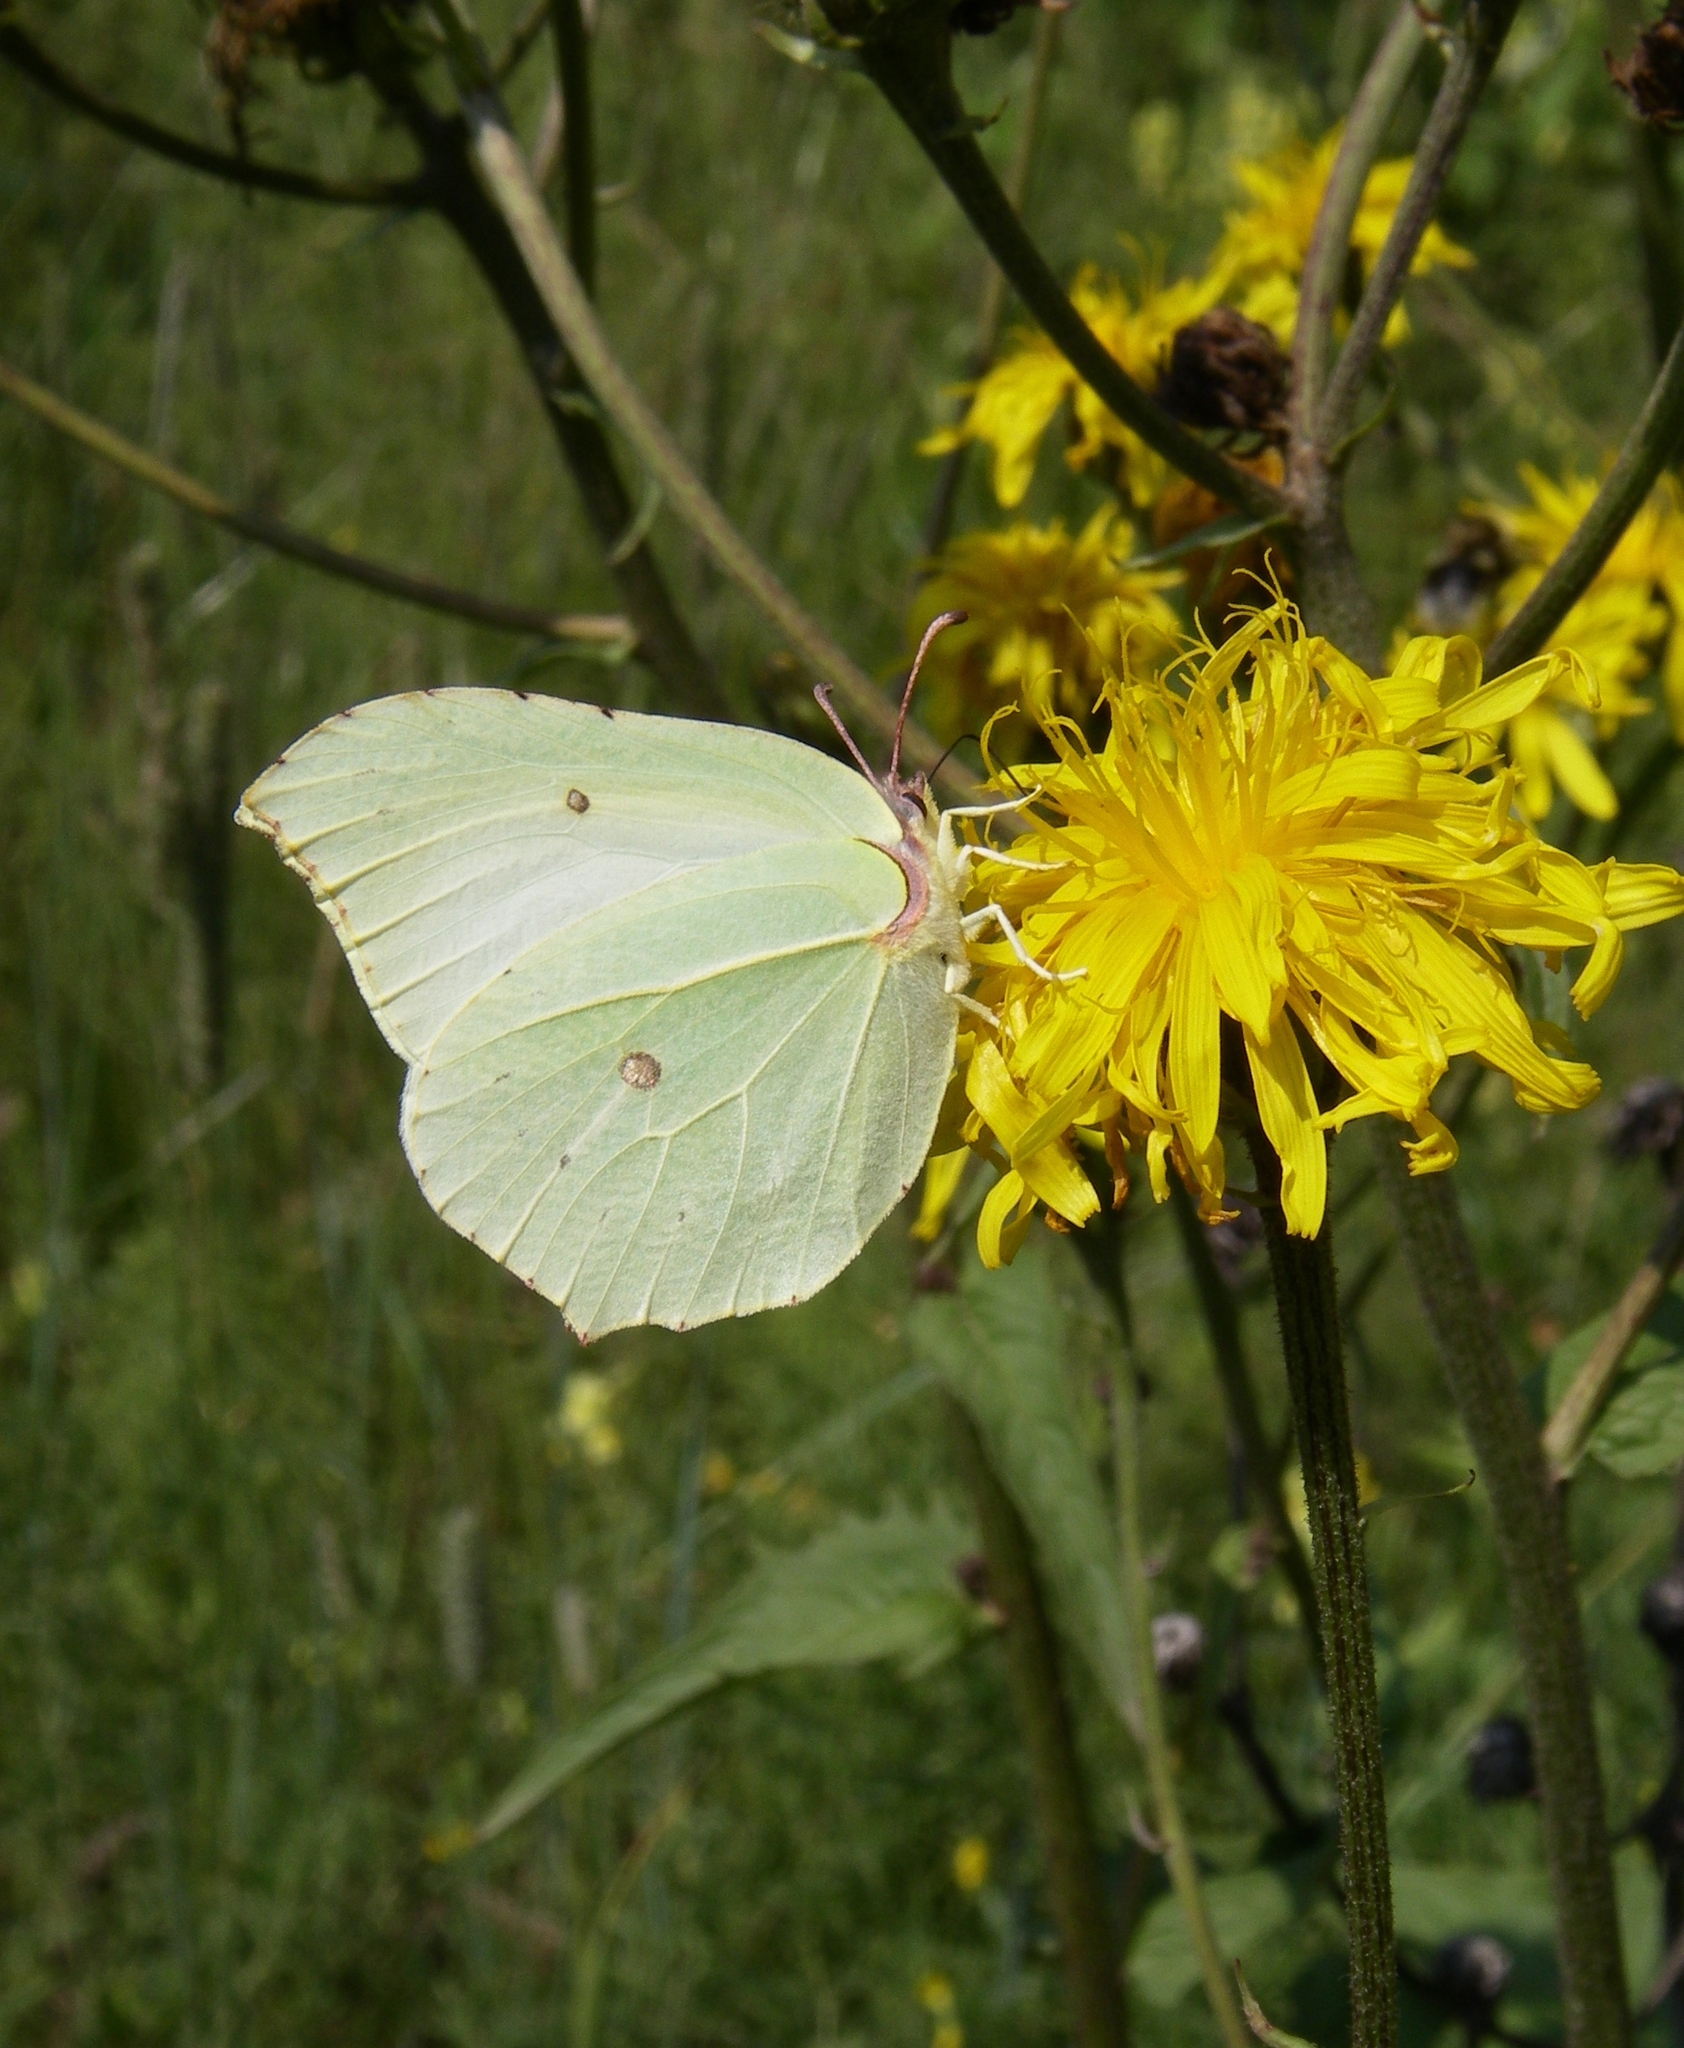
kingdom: Animalia
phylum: Arthropoda
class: Insecta
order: Lepidoptera
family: Pieridae
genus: Gonepteryx
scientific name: Gonepteryx rhamni
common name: Brimstone
